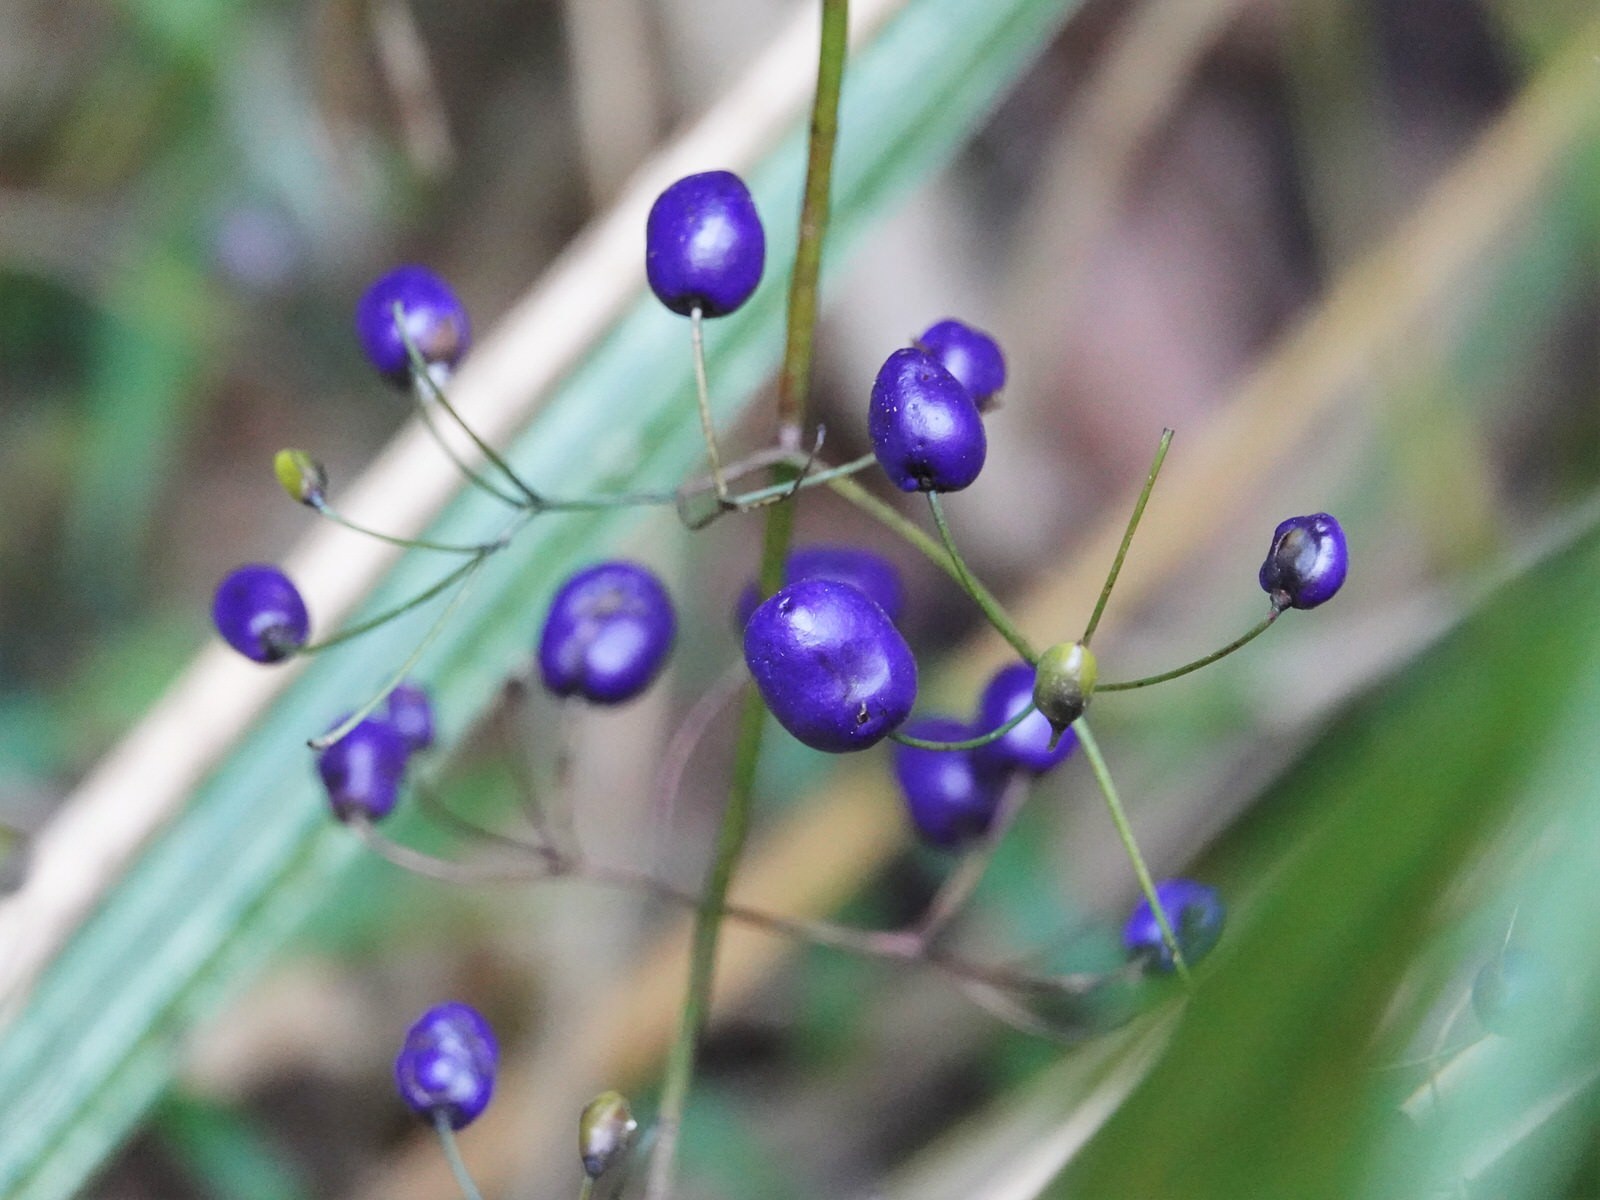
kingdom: Plantae
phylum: Tracheophyta
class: Liliopsida
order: Asparagales
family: Asphodelaceae
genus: Dianella
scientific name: Dianella nigra
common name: New zealand-blueberry
